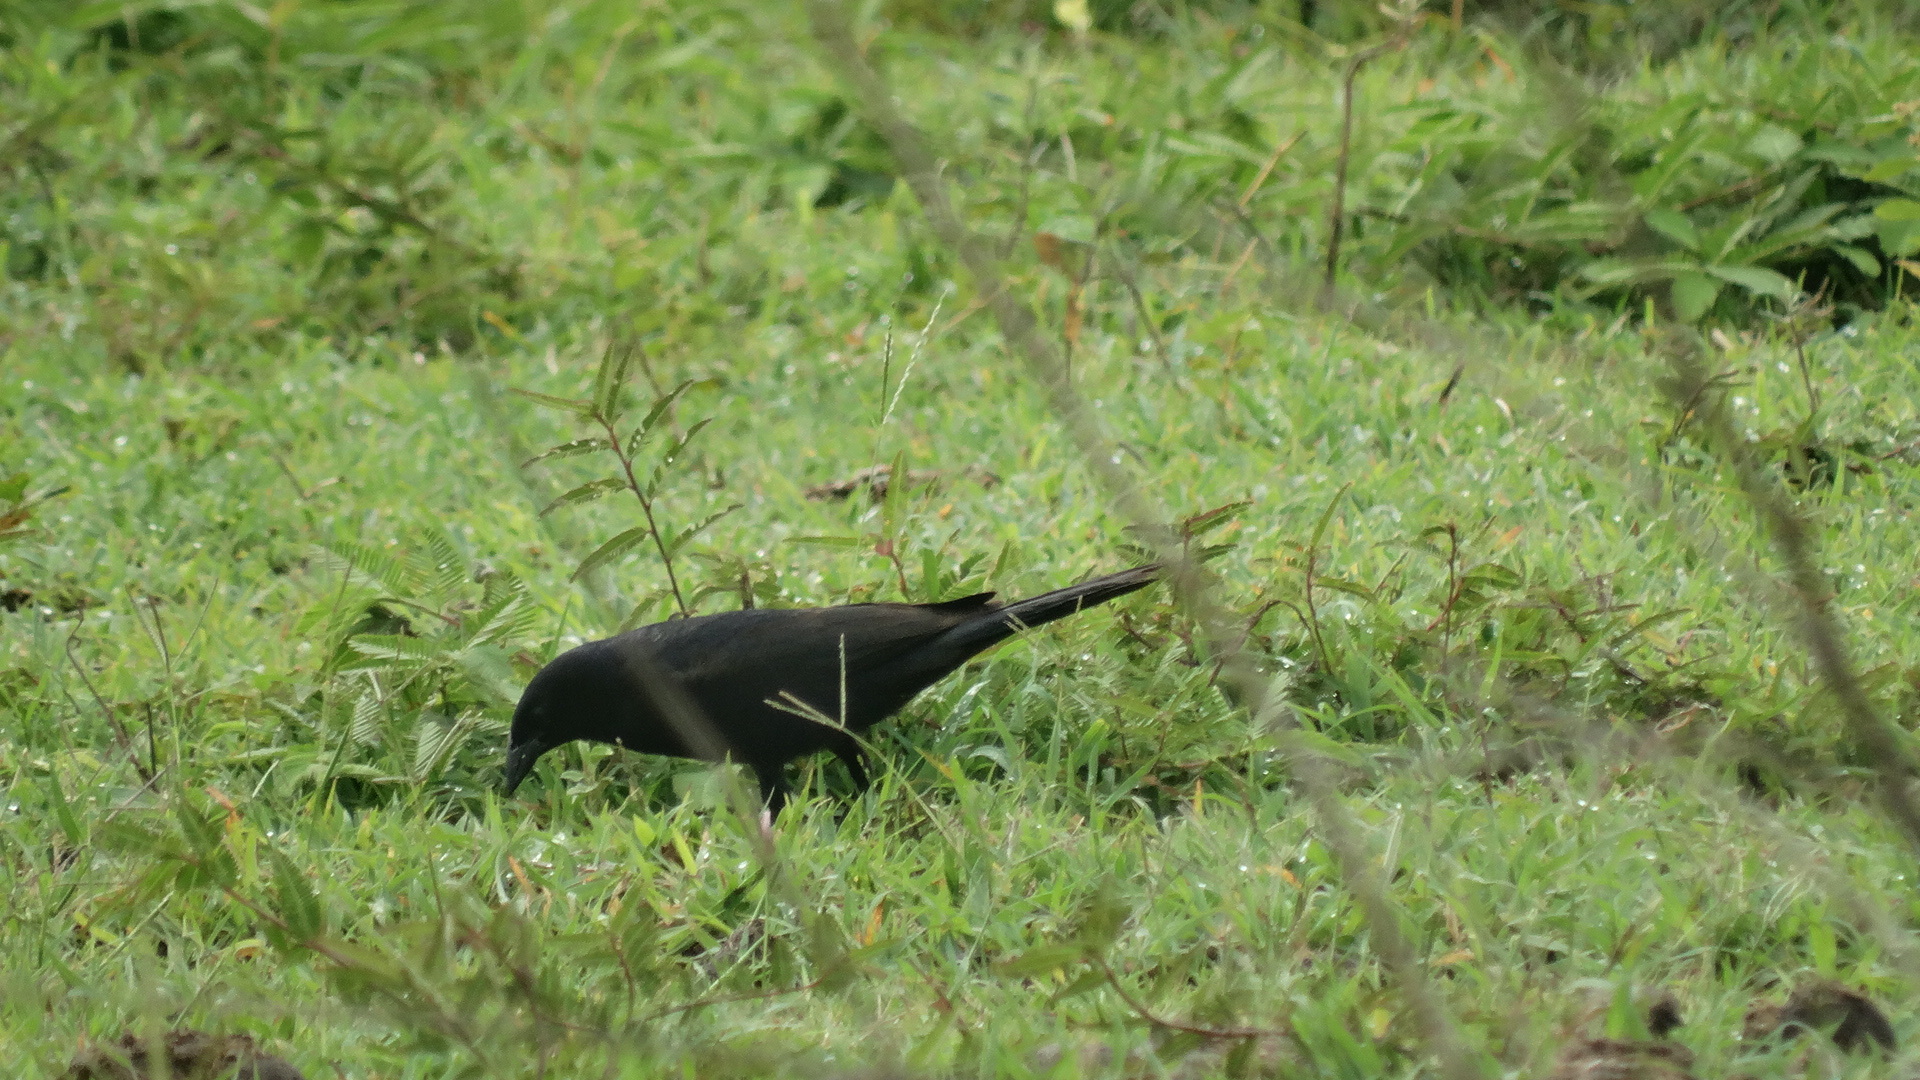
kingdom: Animalia
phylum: Chordata
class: Aves
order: Passeriformes
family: Icteridae
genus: Molothrus
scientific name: Molothrus aeneus
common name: Bronzed cowbird
